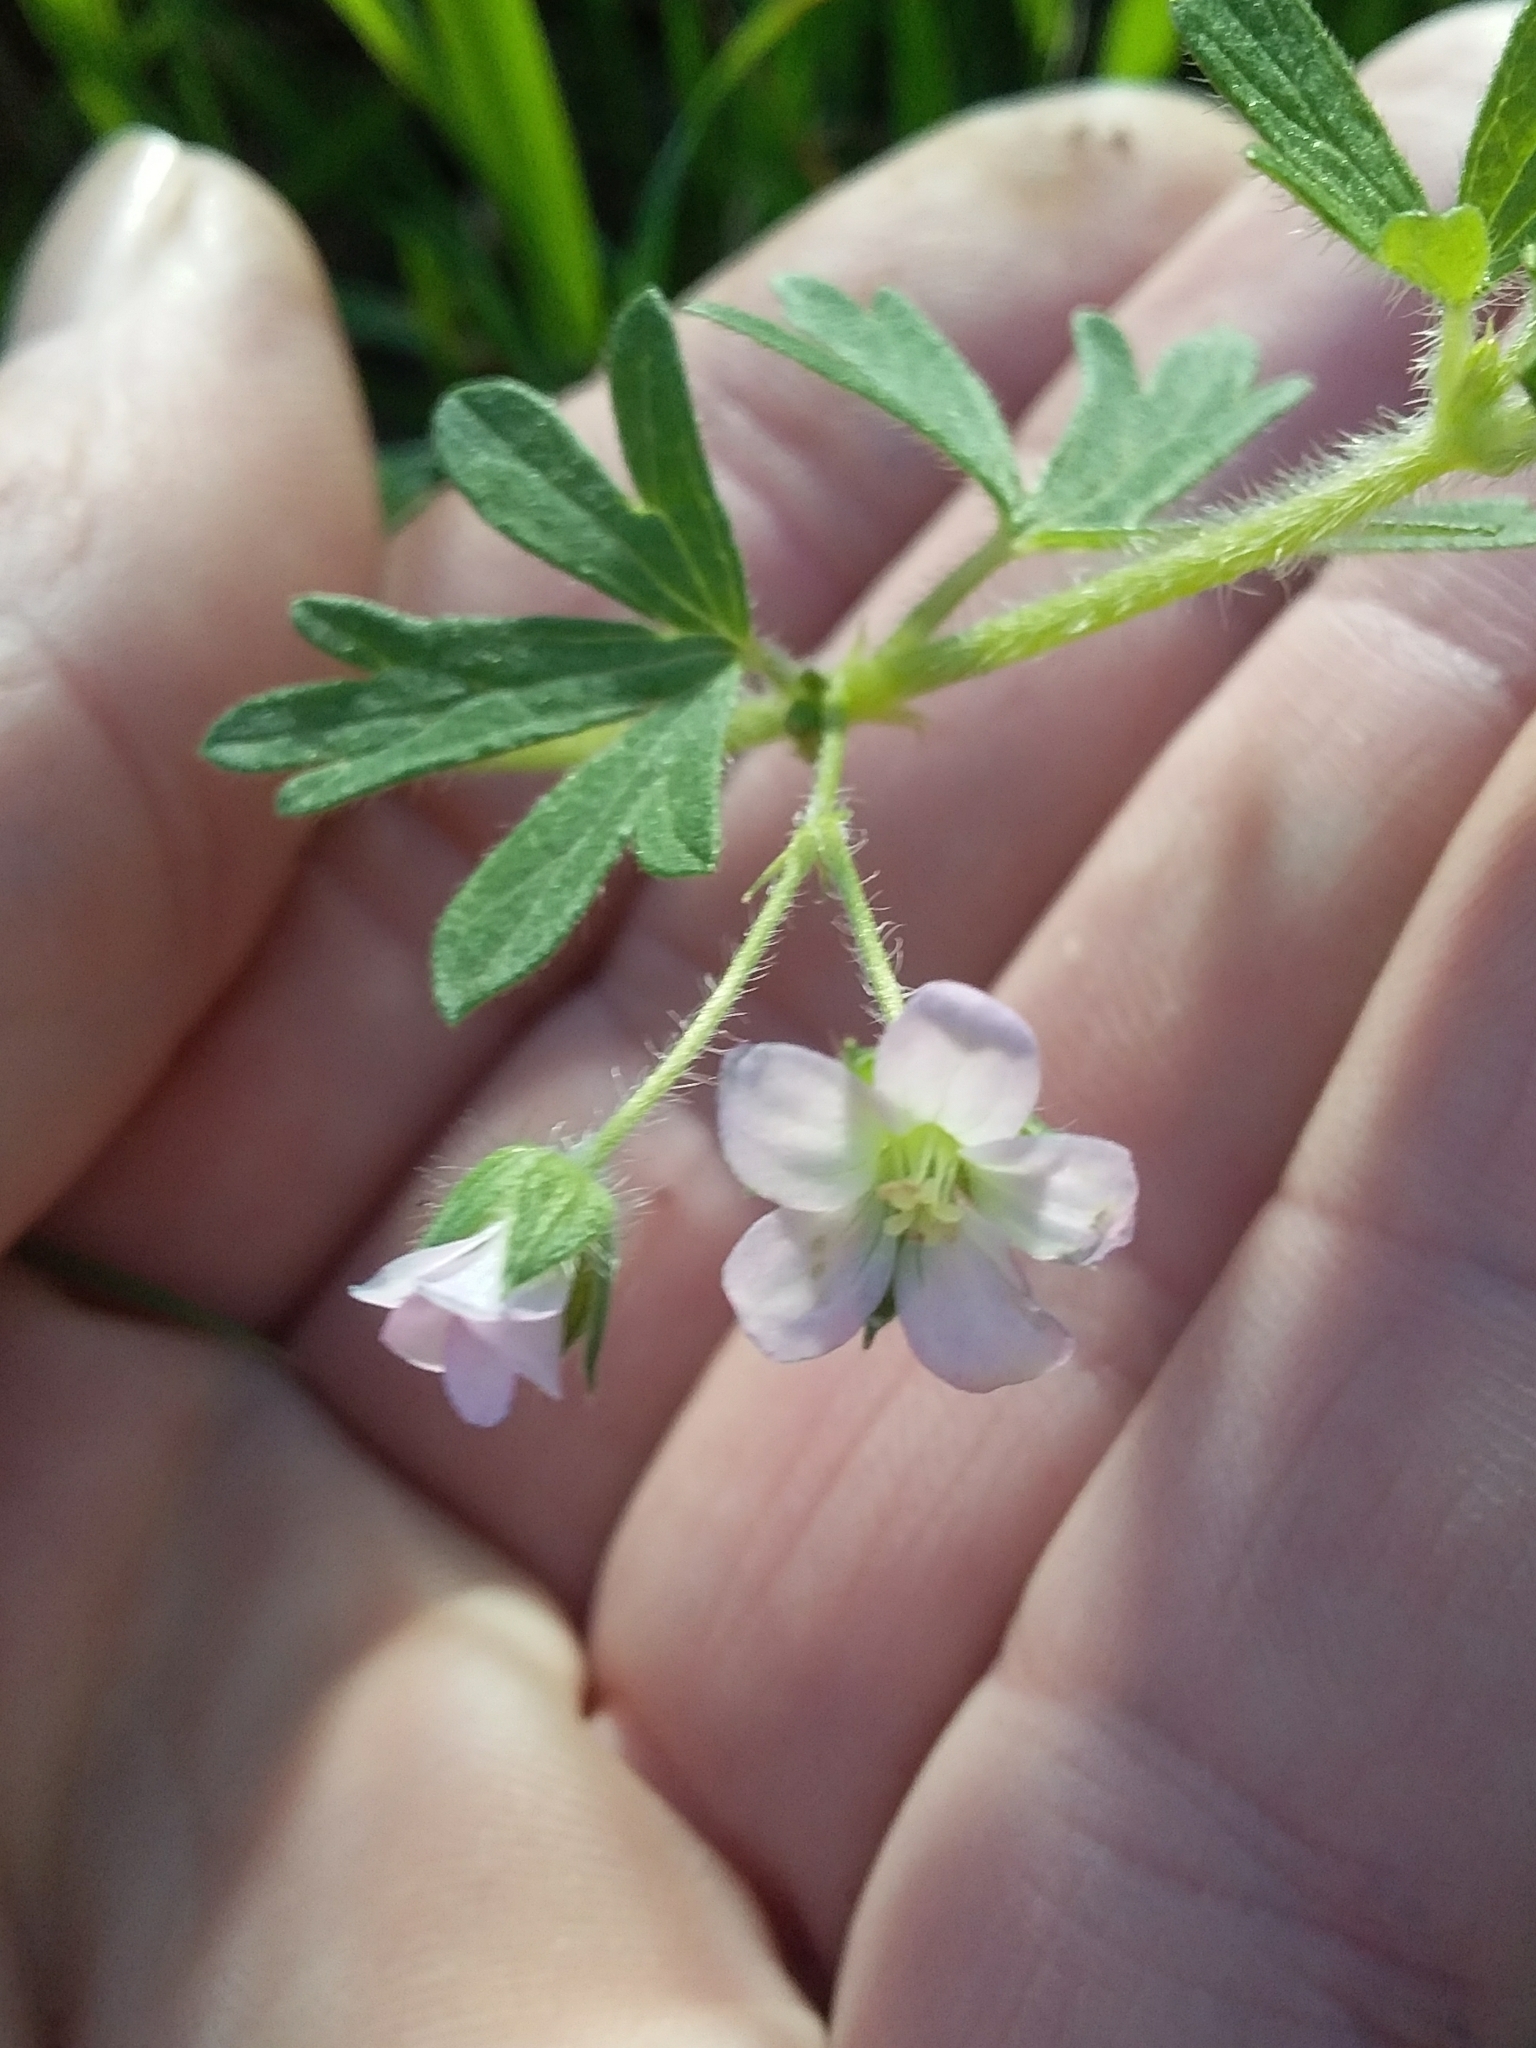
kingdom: Plantae
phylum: Tracheophyta
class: Magnoliopsida
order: Geraniales
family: Geraniaceae
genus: Geranium
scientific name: Geranium solanderi
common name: Solander's geranium
